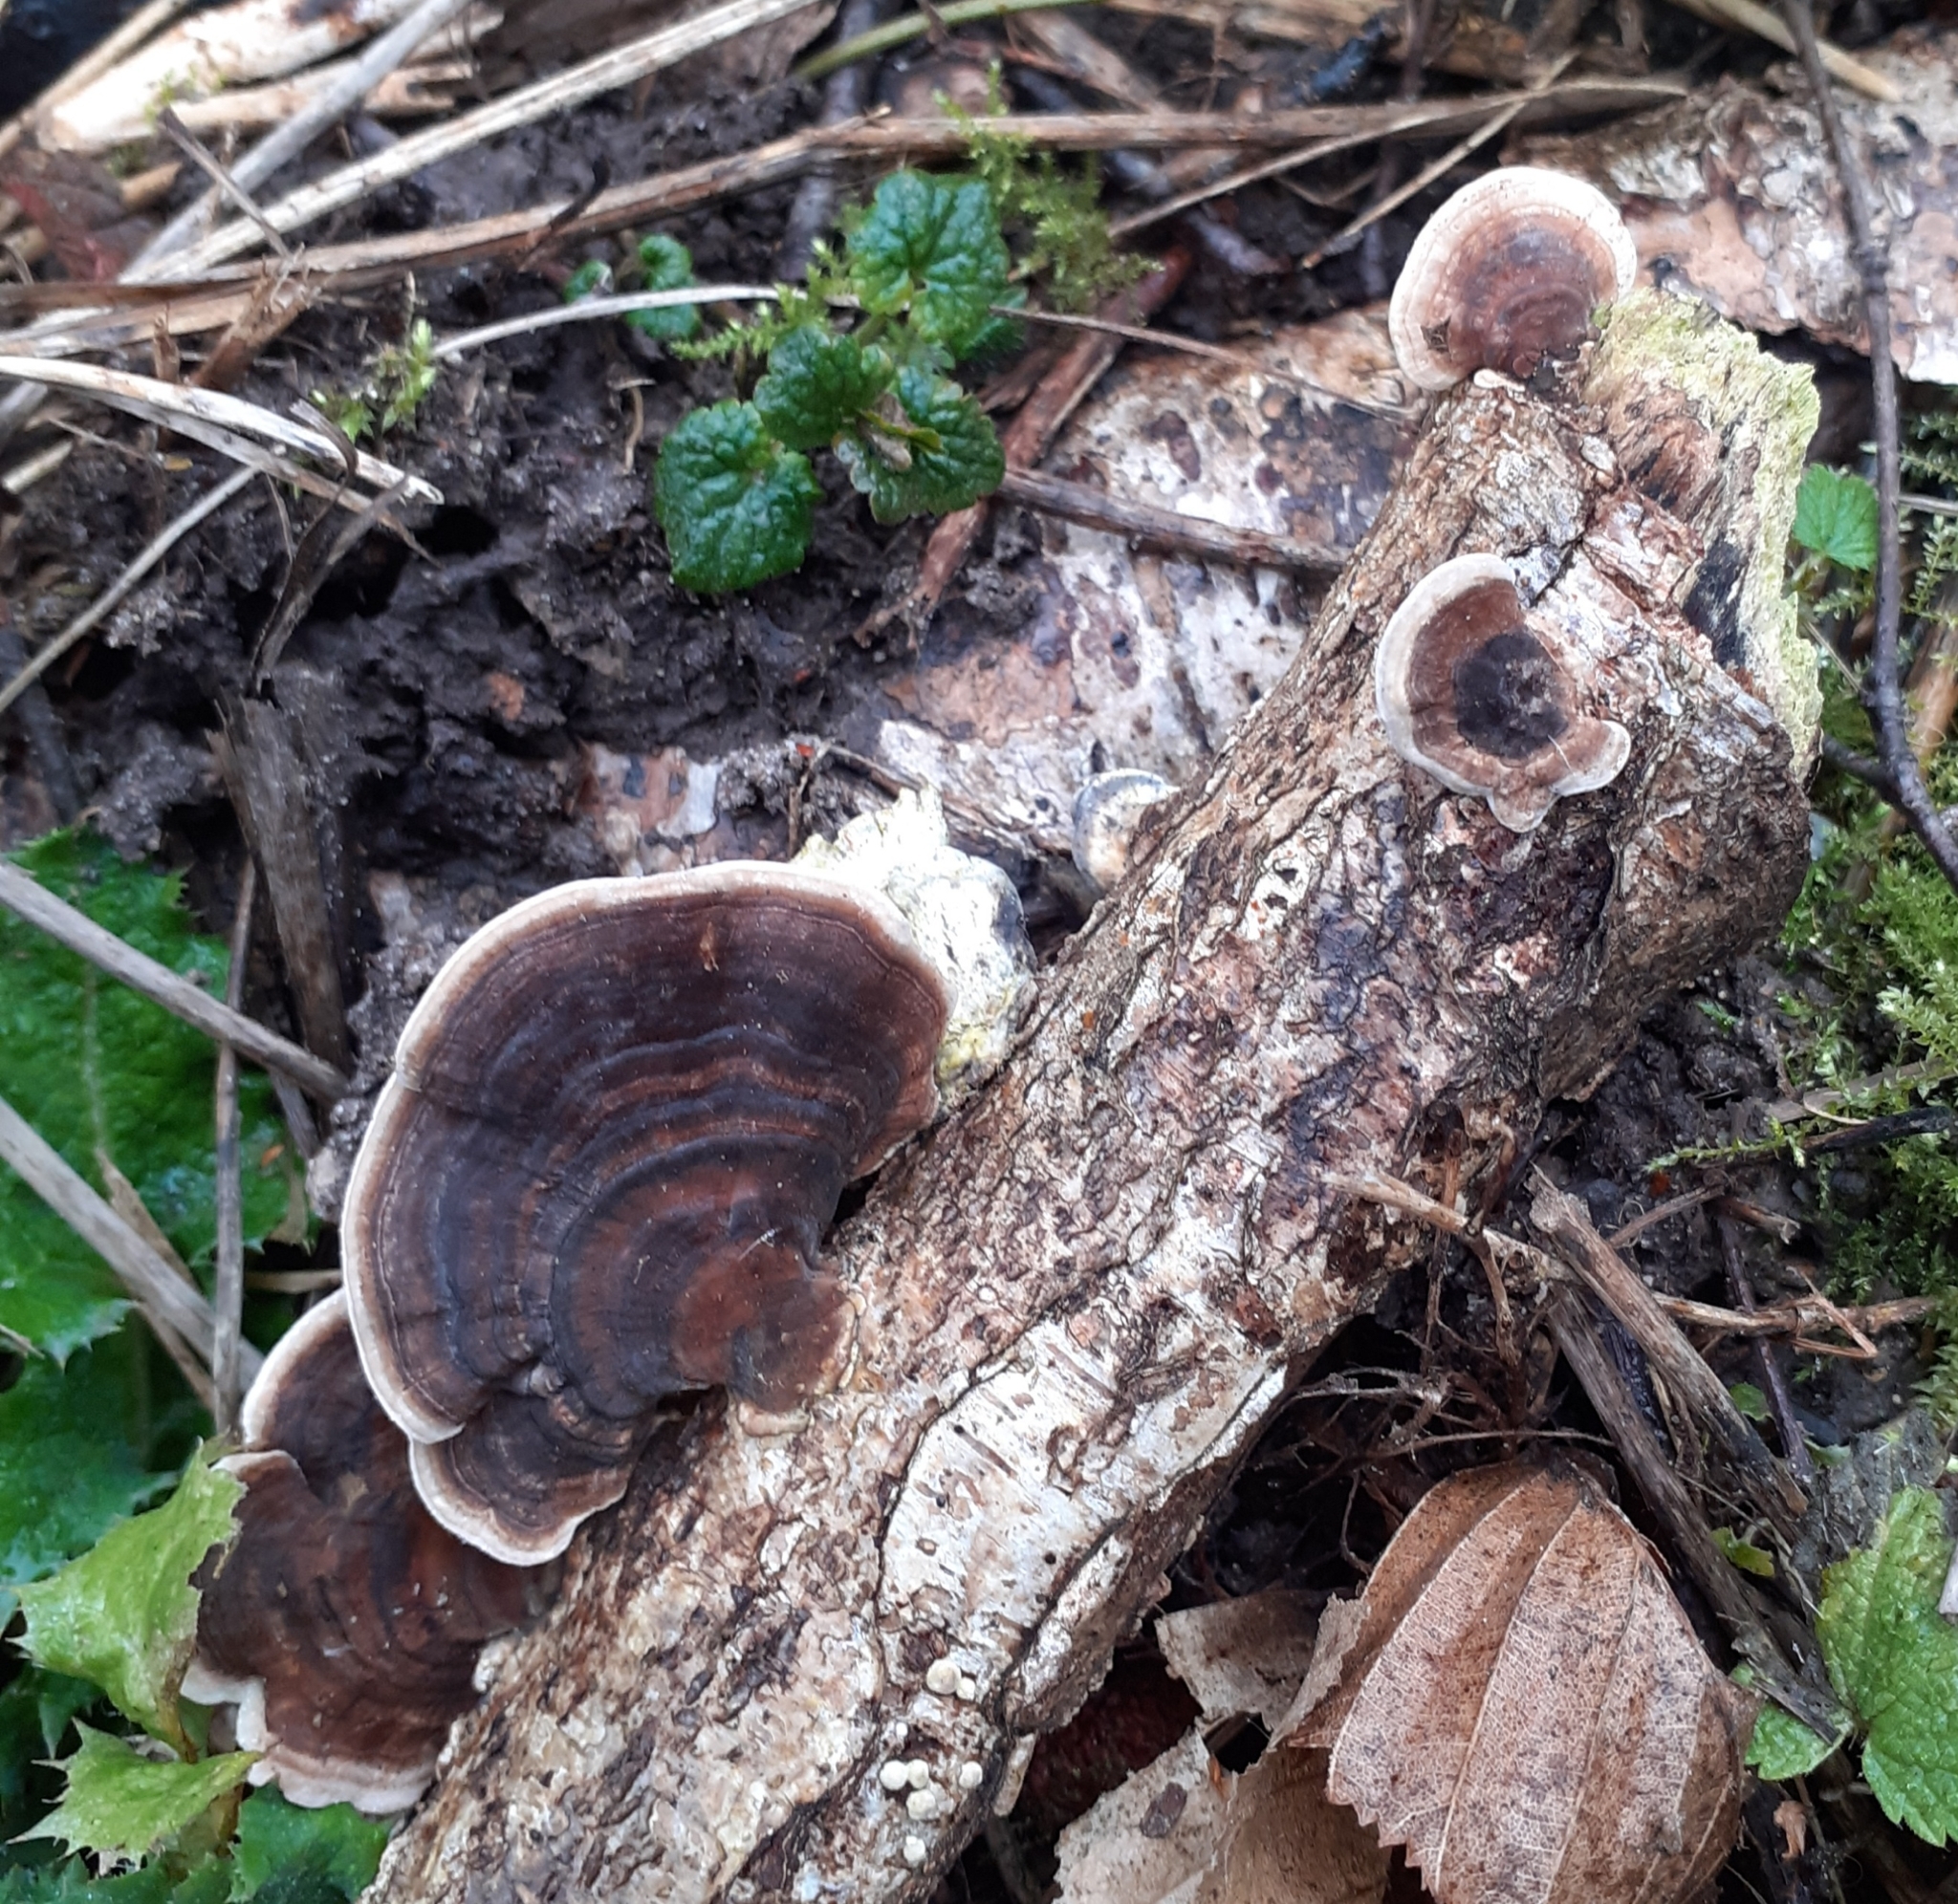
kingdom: Fungi
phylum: Basidiomycota
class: Agaricomycetes
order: Polyporales
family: Polyporaceae
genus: Trametes
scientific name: Trametes versicolor
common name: Turkeytail
